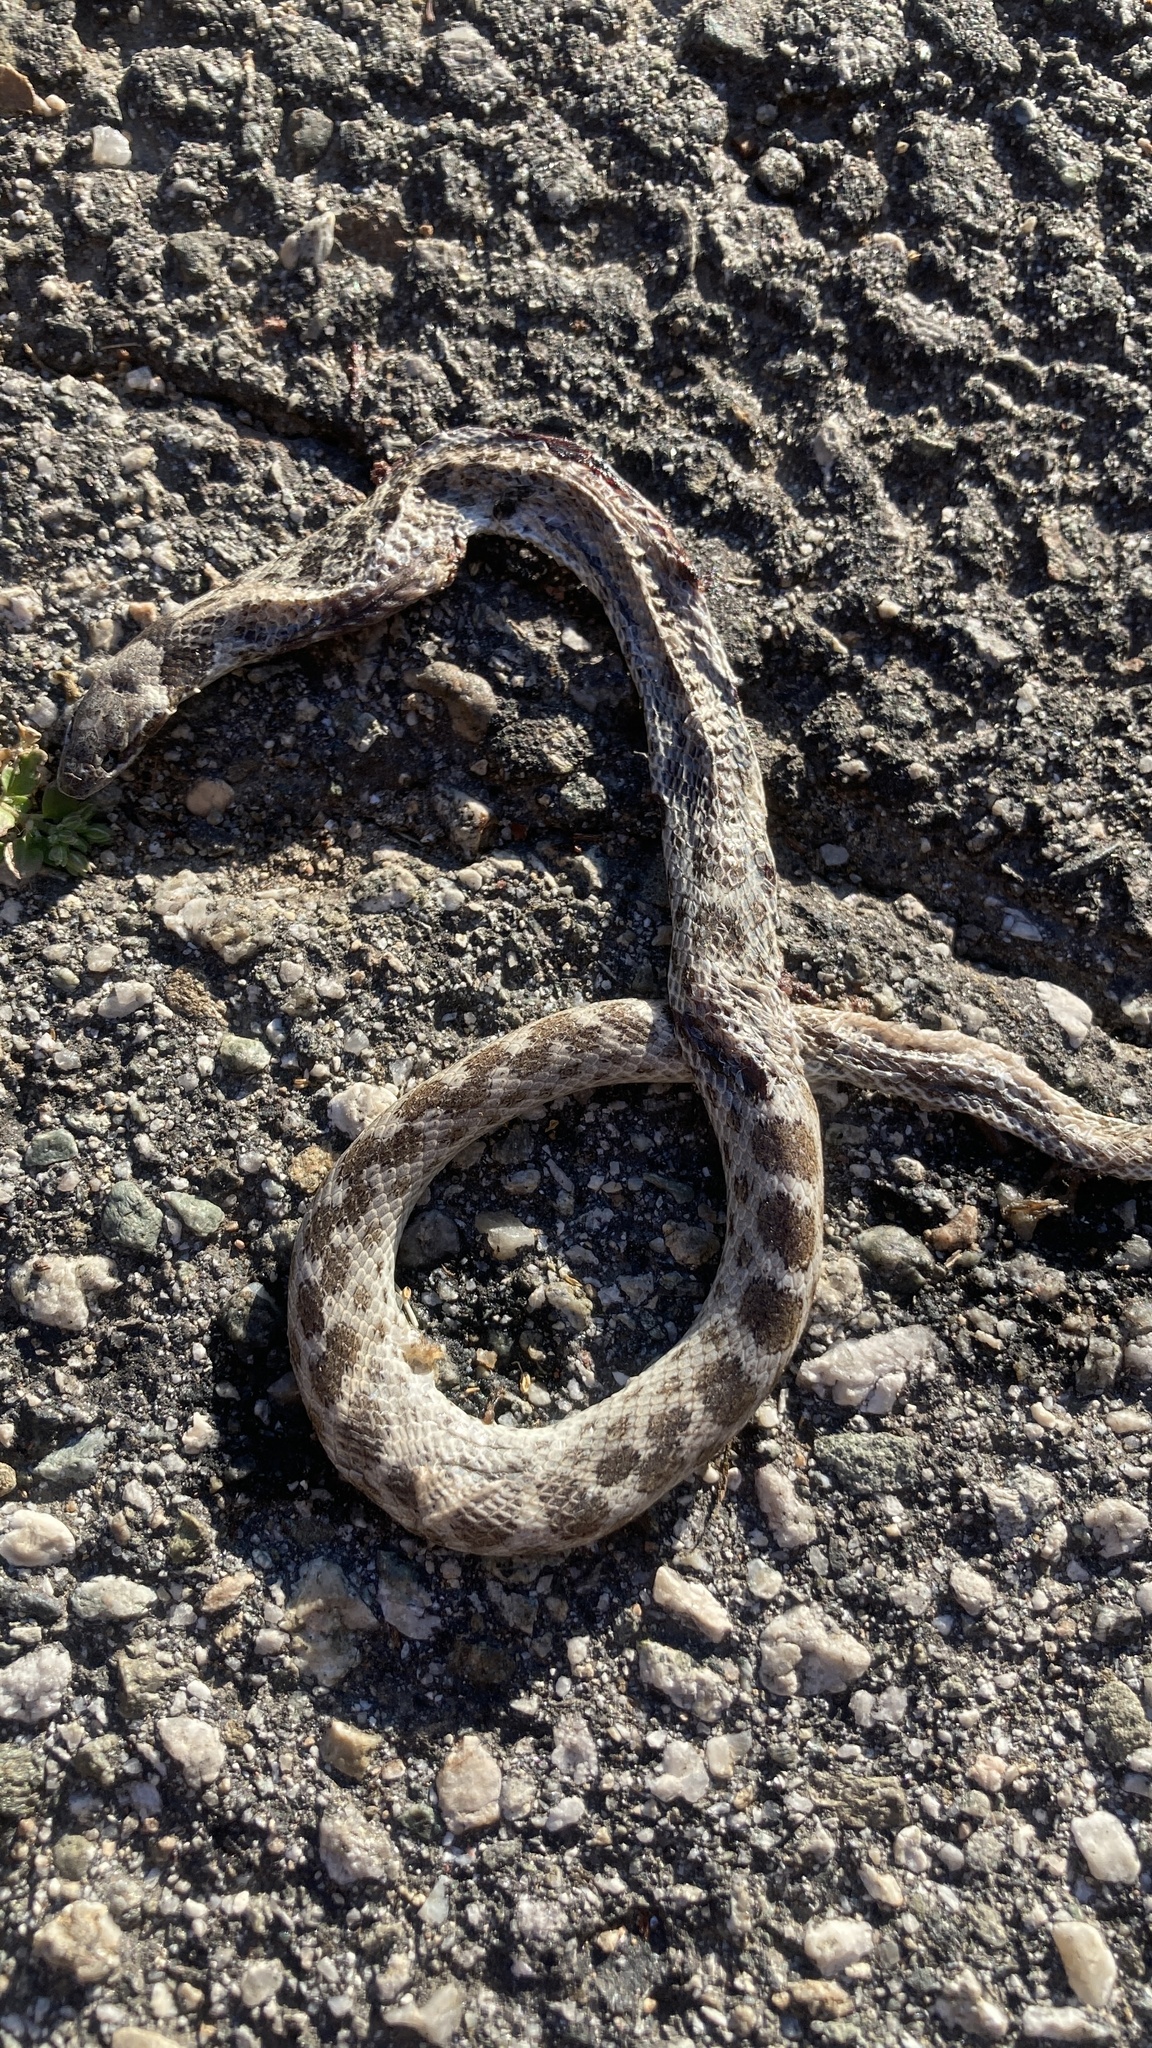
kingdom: Animalia
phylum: Chordata
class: Squamata
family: Colubridae
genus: Hypsiglena
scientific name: Hypsiglena ochrorhynchus
